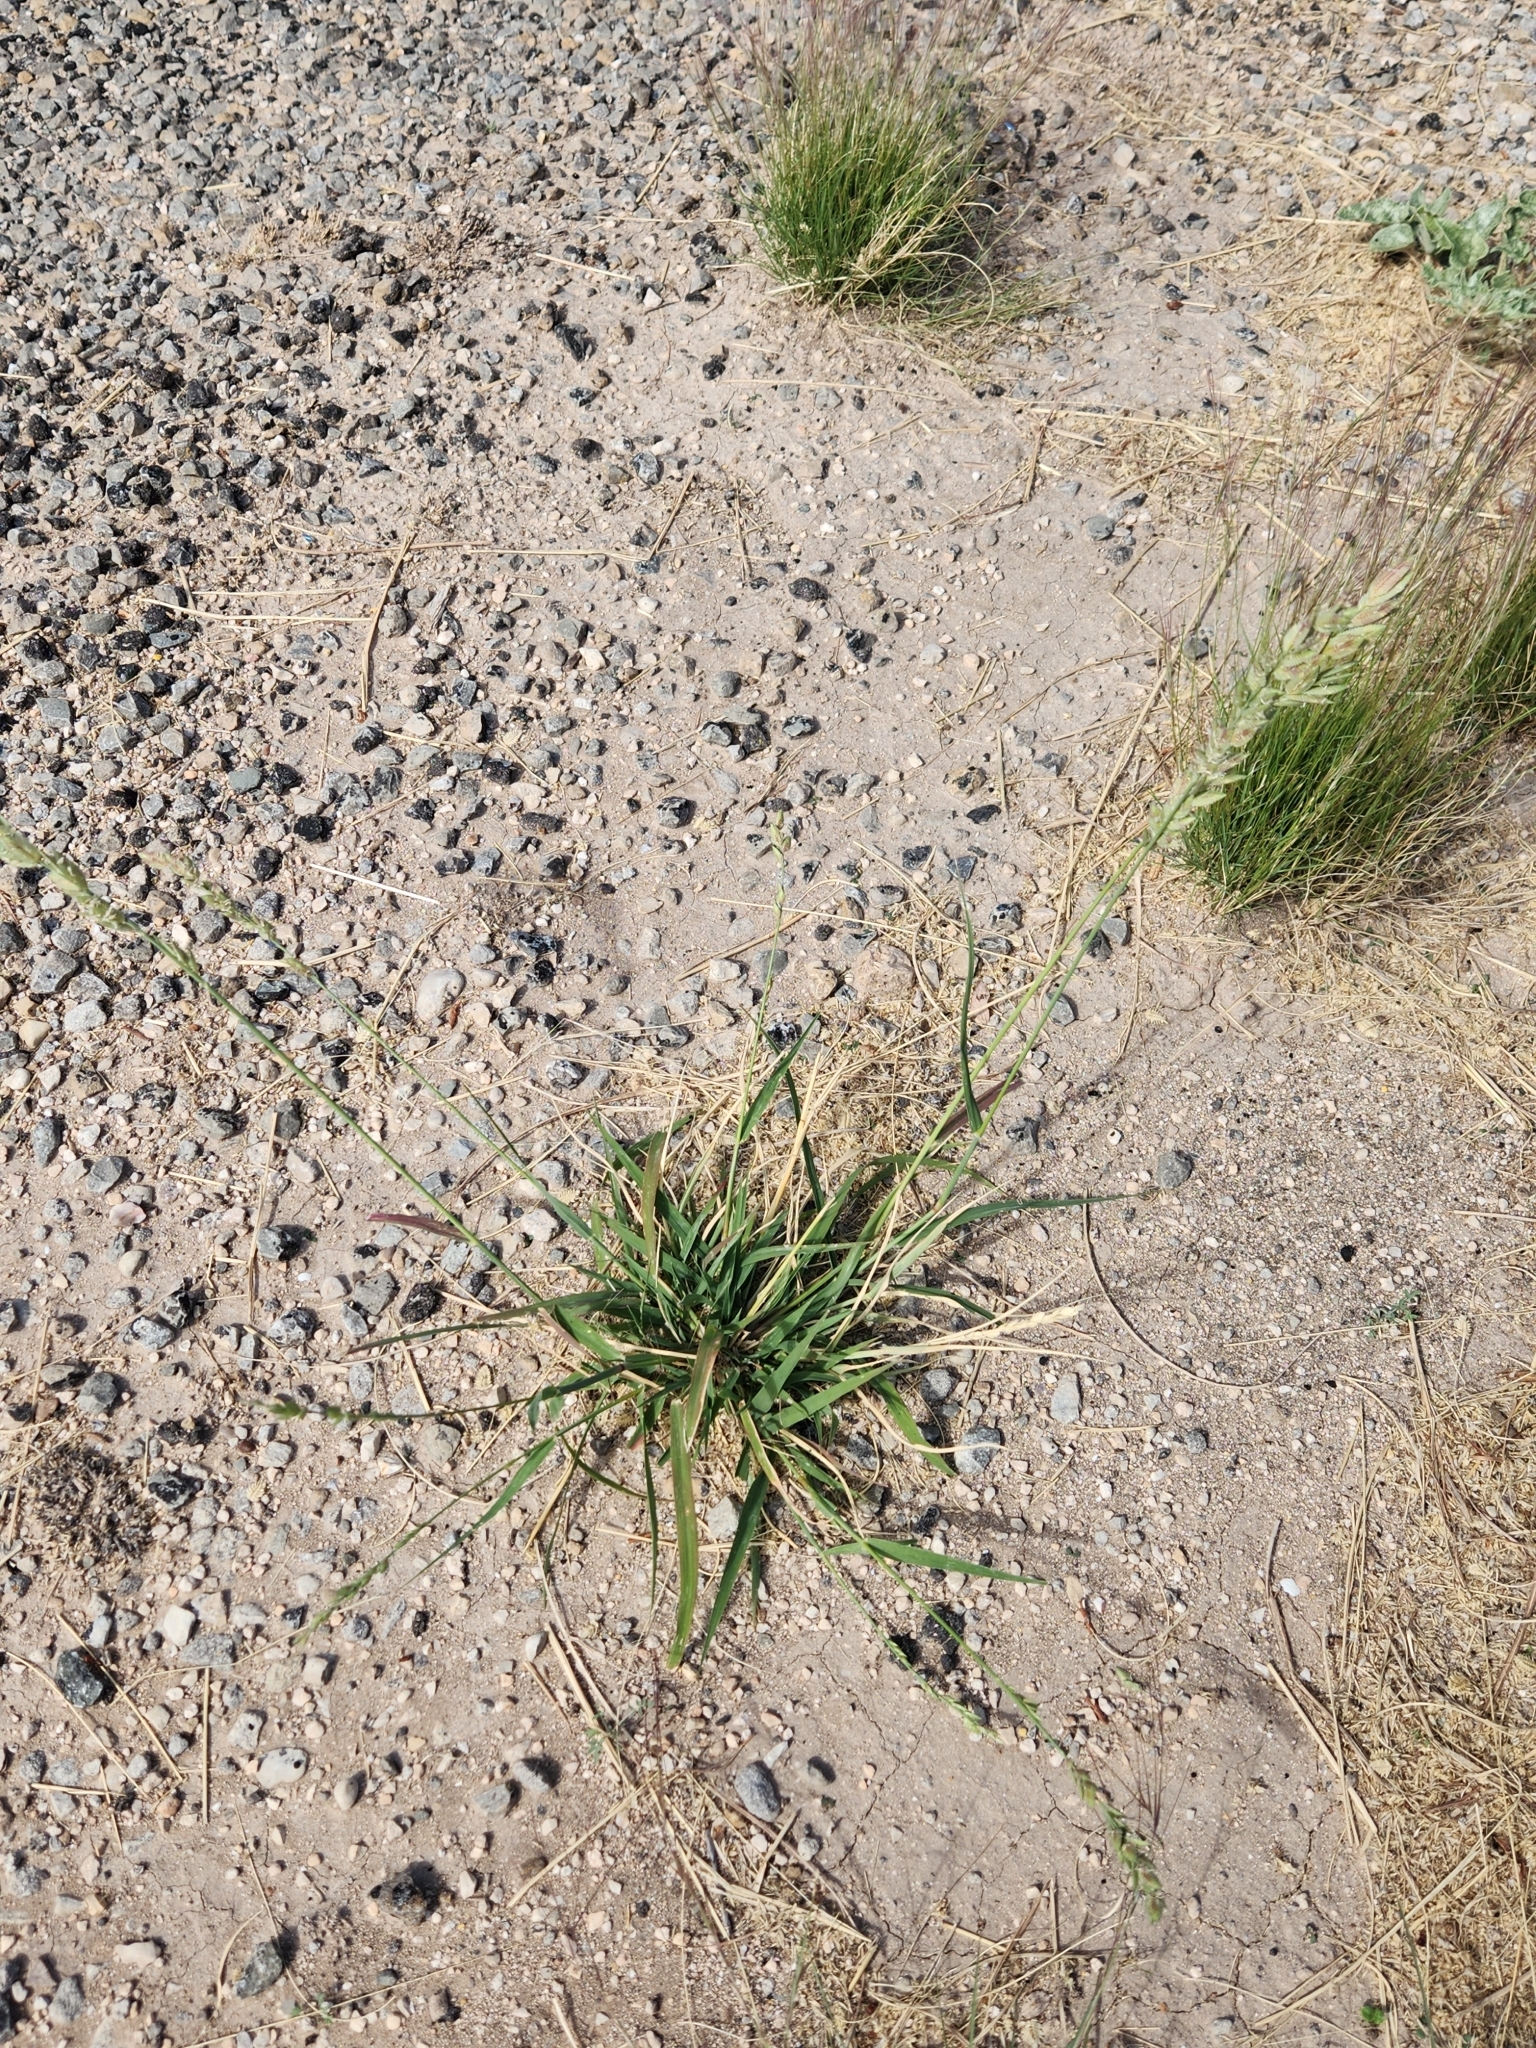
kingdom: Plantae
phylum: Tracheophyta
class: Liliopsida
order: Poales
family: Poaceae
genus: Eragrostis
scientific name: Eragrostis superba
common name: Wilman lovegrass
